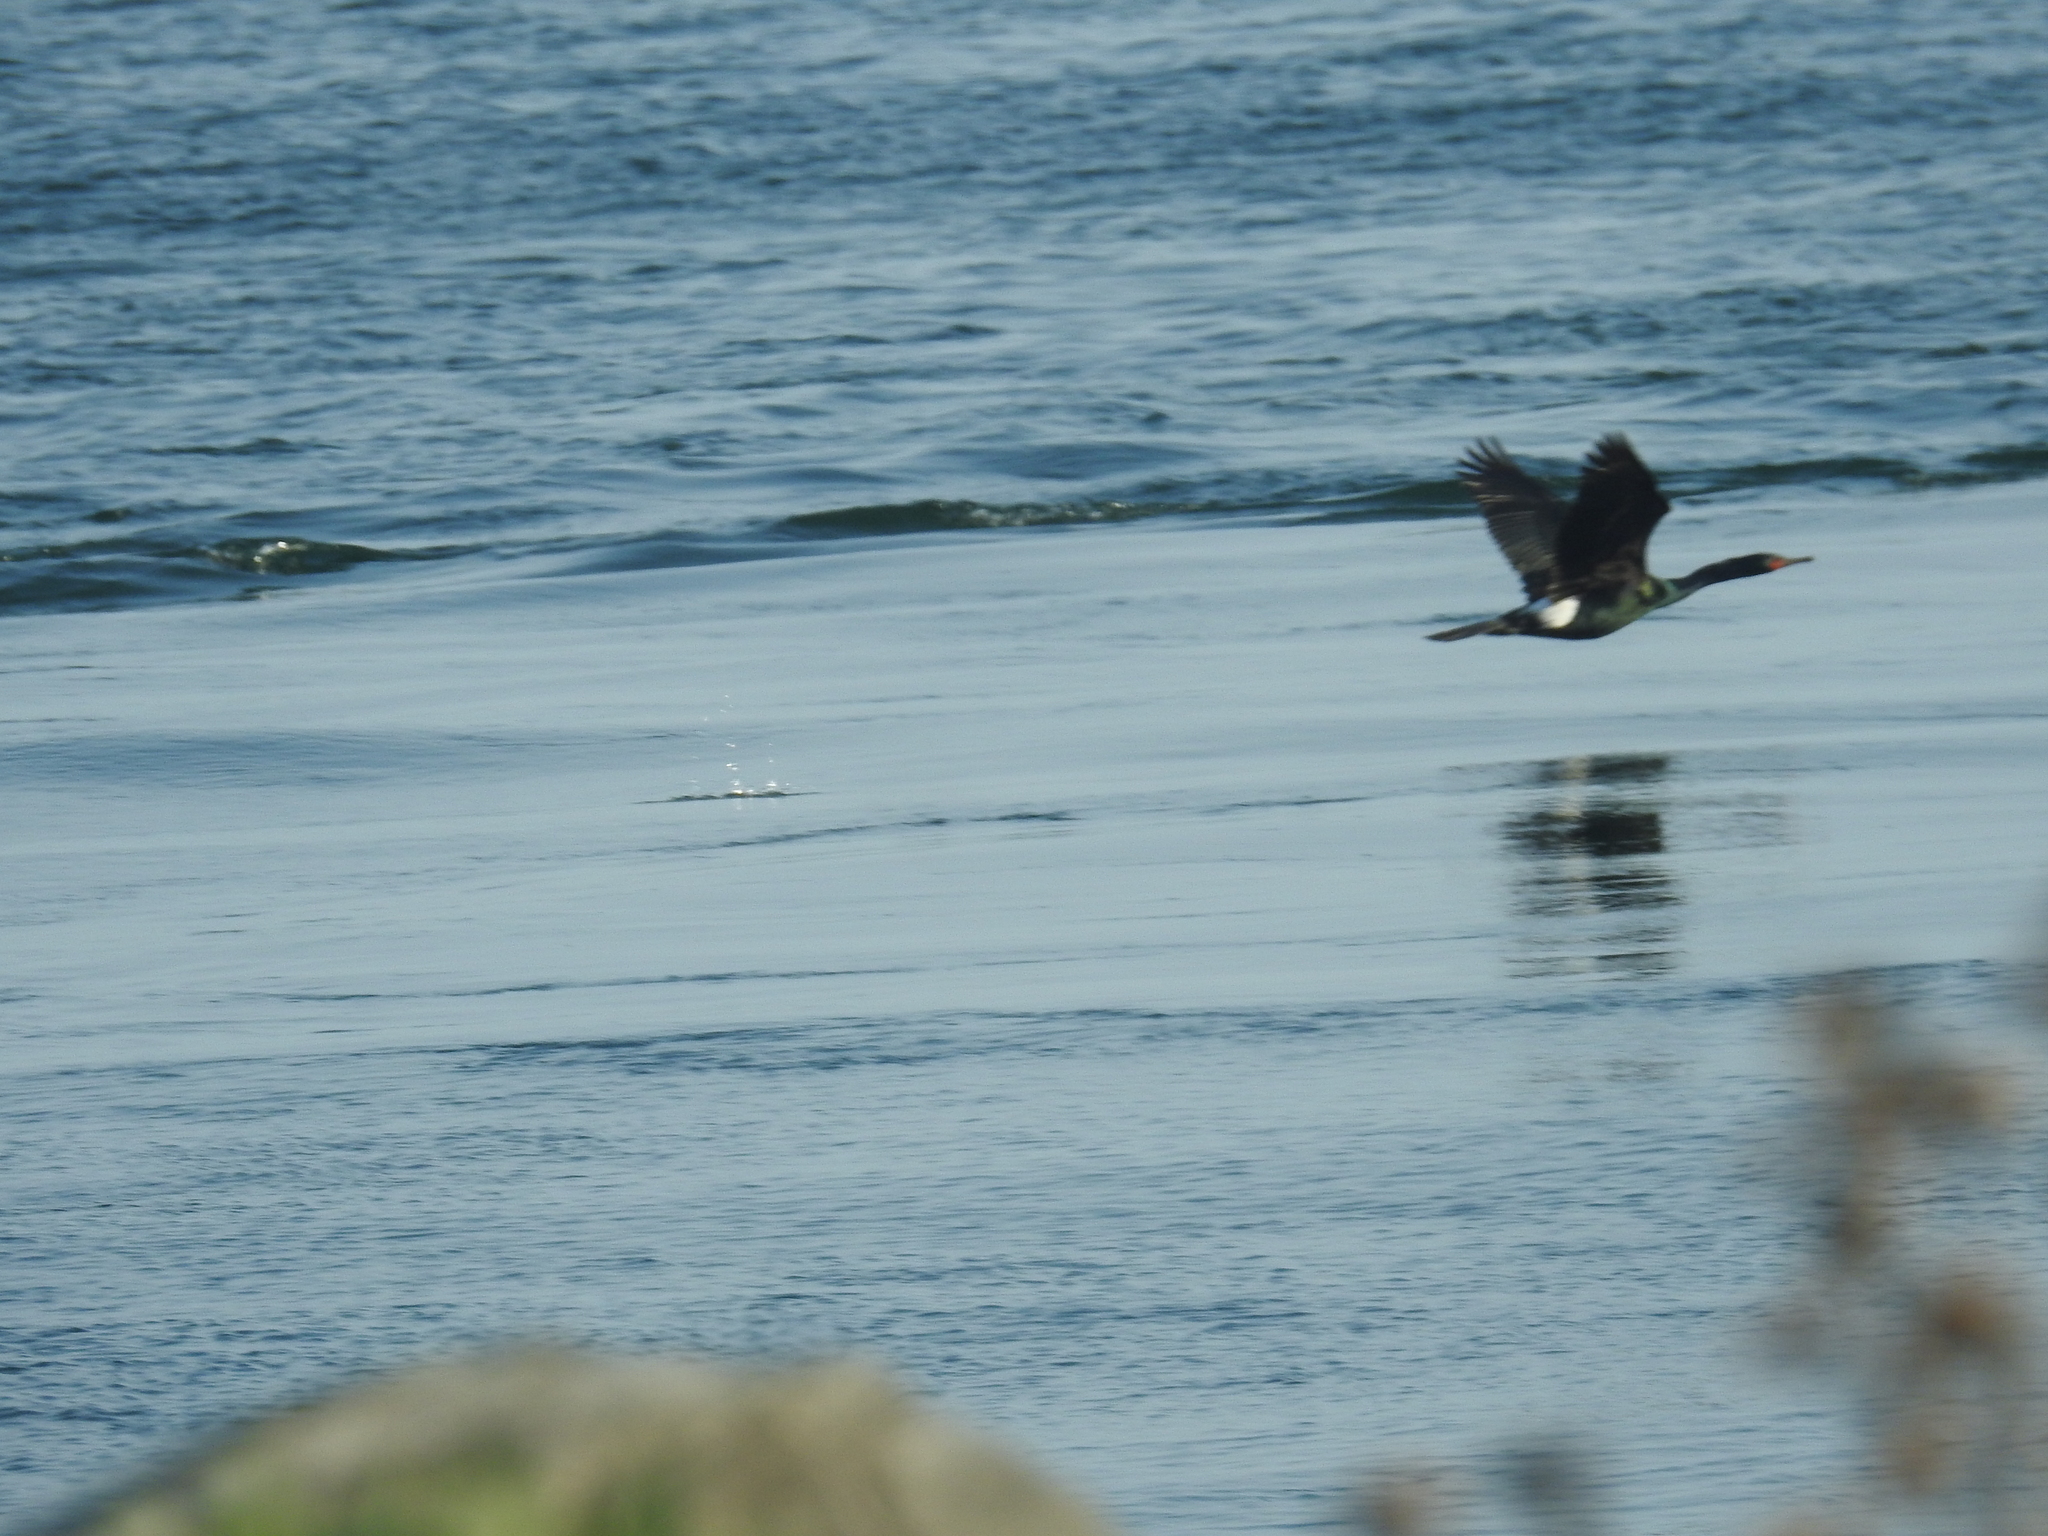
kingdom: Animalia
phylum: Chordata
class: Aves
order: Suliformes
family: Phalacrocoracidae
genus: Phalacrocorax
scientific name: Phalacrocorax pelagicus
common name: Pelagic cormorant
